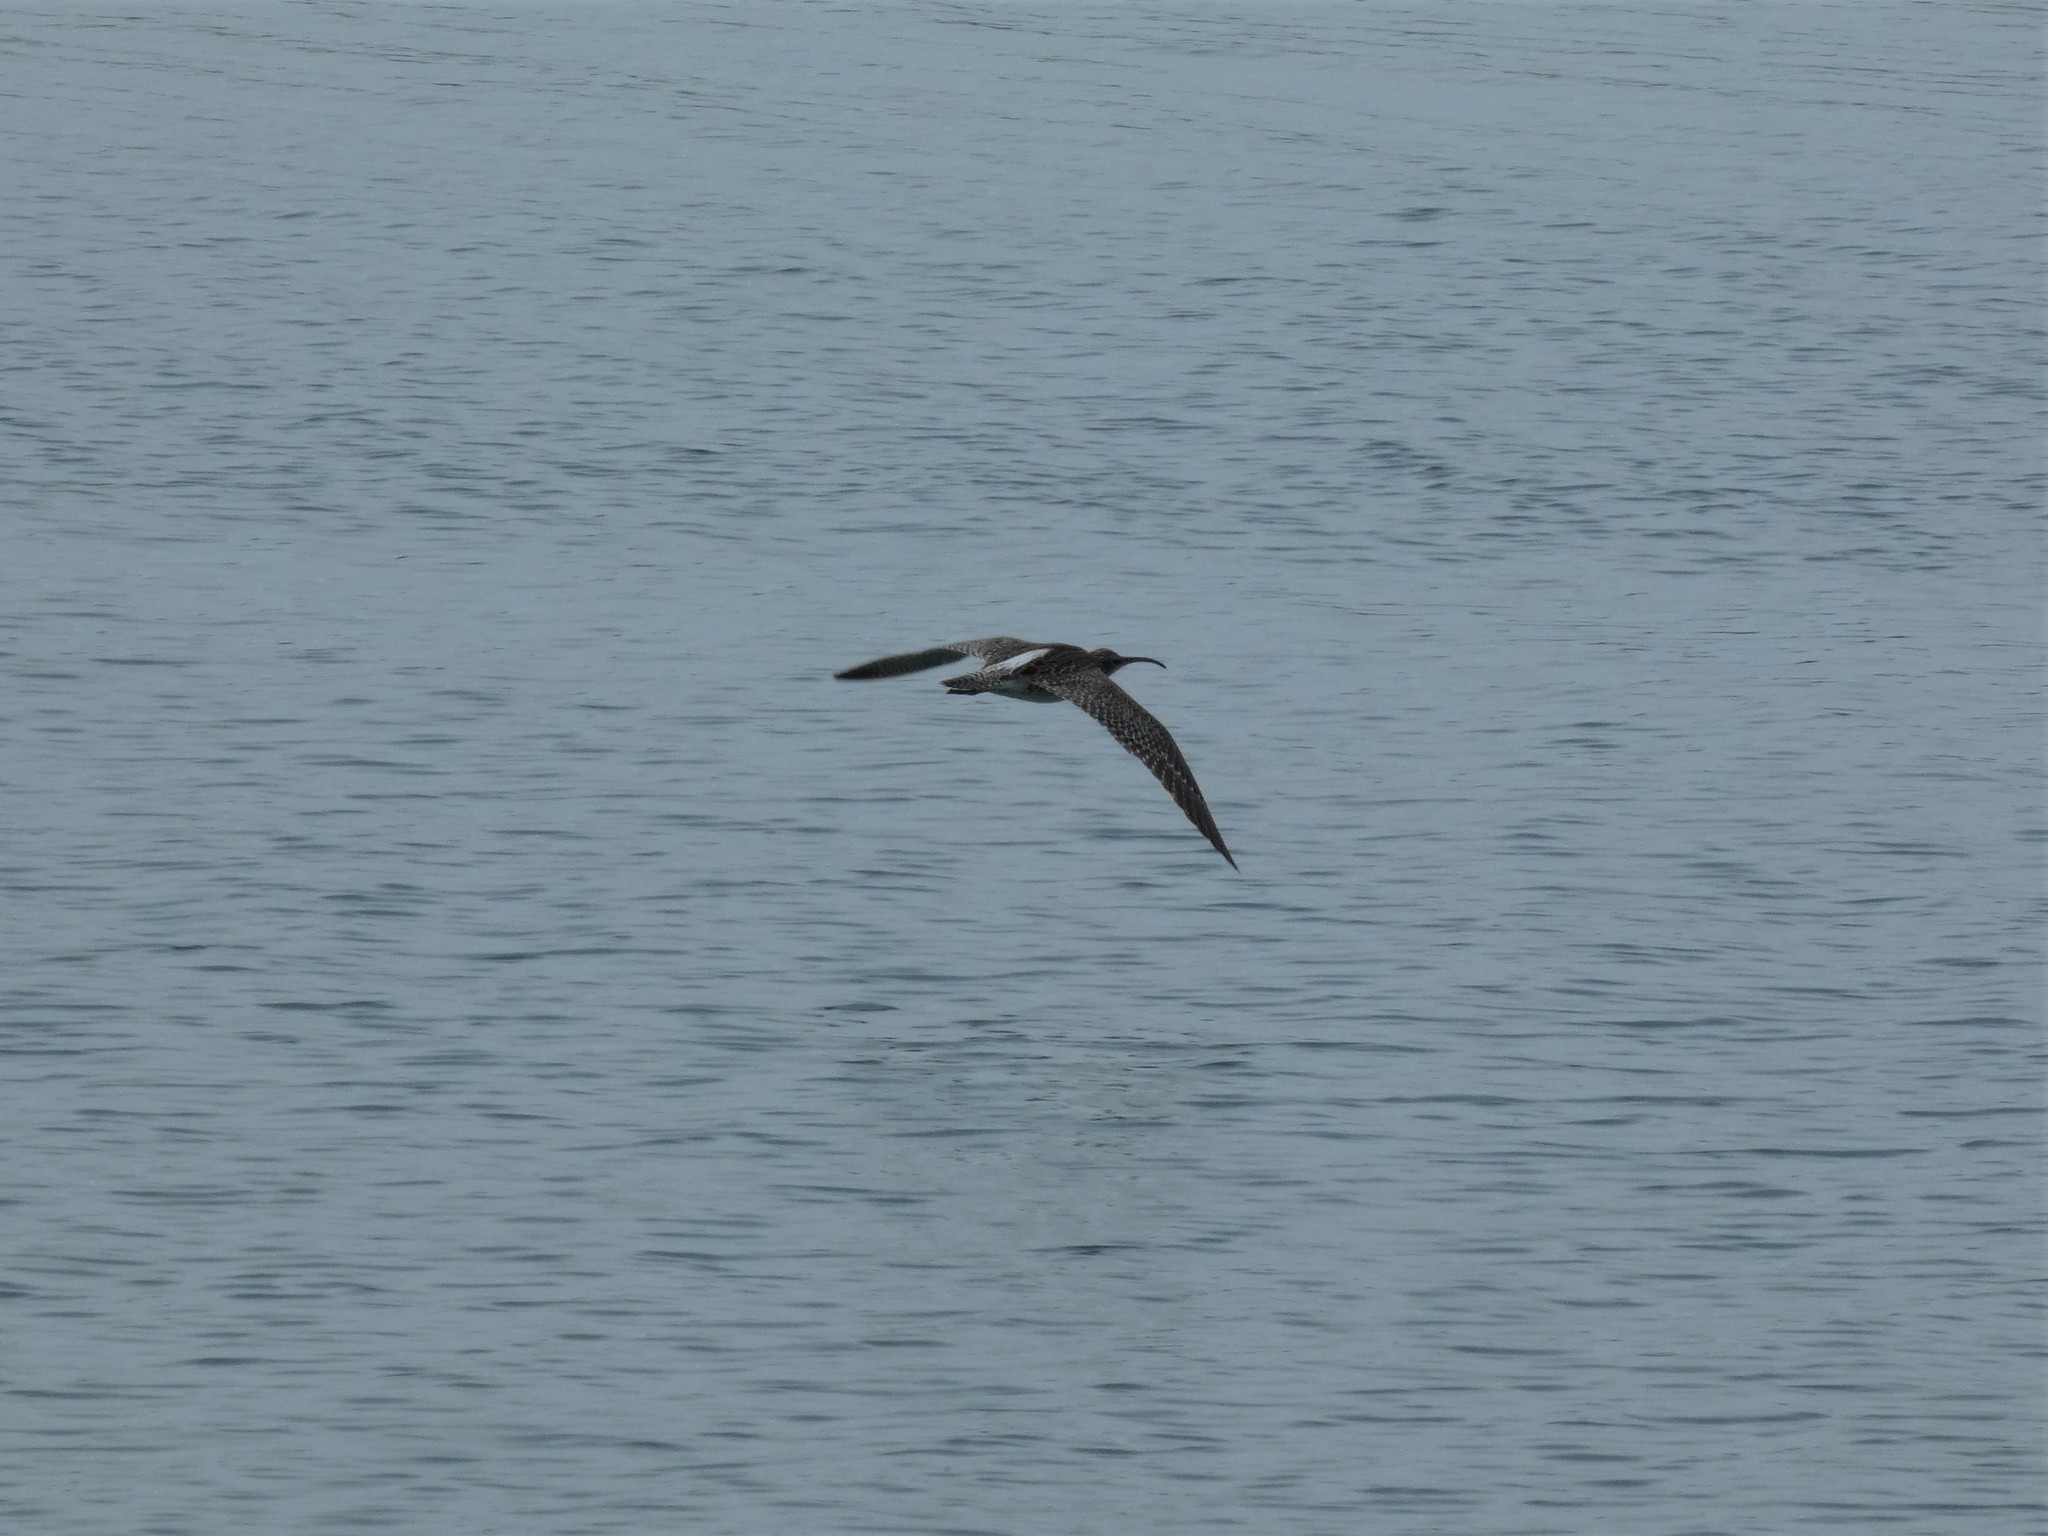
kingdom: Animalia
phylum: Chordata
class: Aves
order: Charadriiformes
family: Scolopacidae
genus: Numenius
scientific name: Numenius phaeopus
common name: Whimbrel
